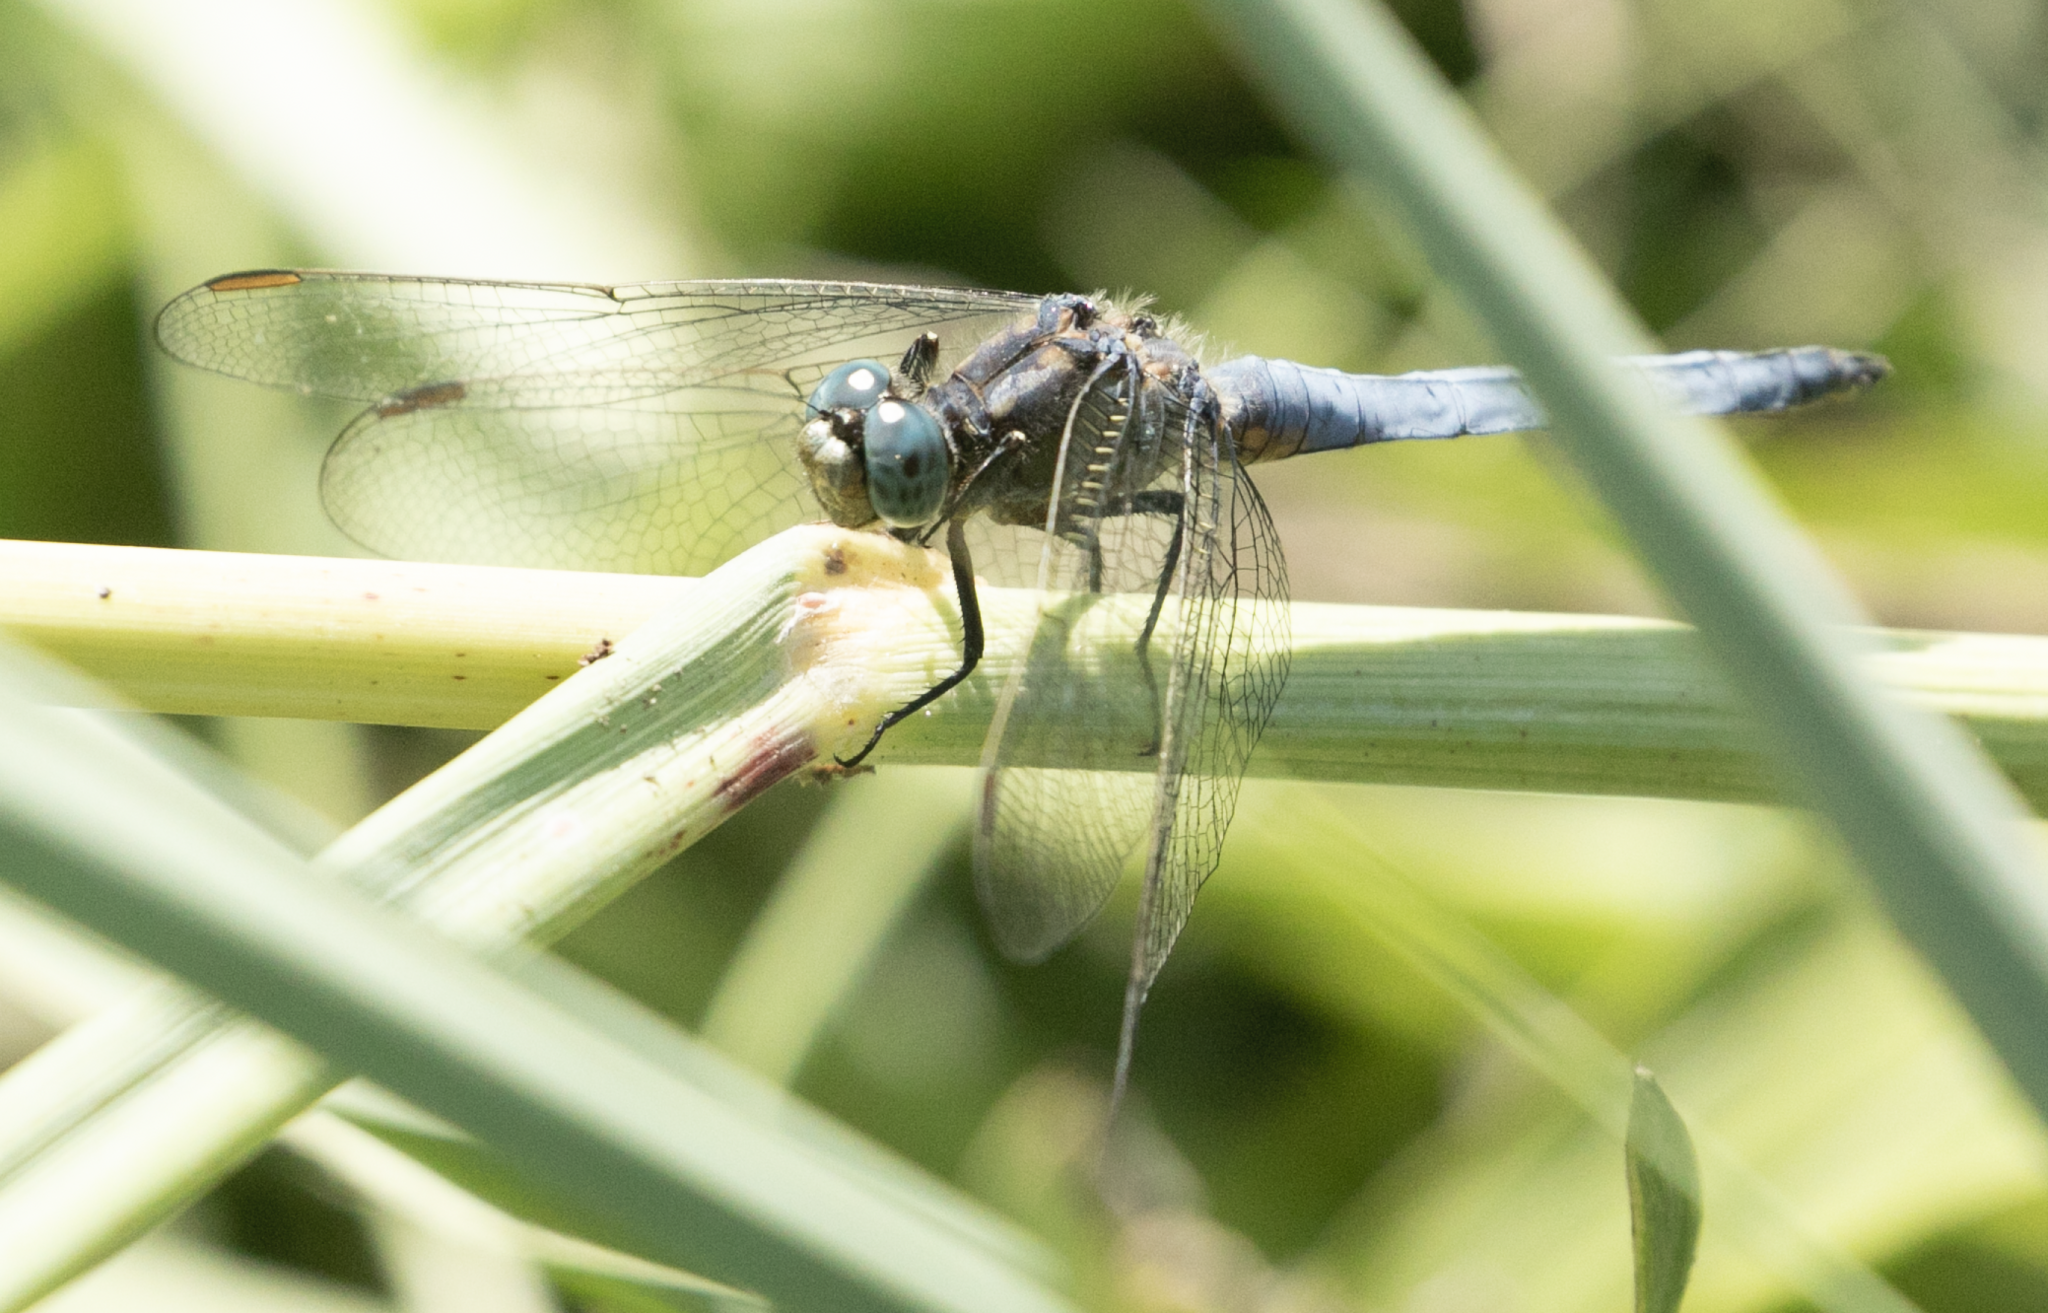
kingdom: Animalia
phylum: Arthropoda
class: Insecta
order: Odonata
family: Libellulidae
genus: Orthetrum
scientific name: Orthetrum coerulescens
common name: Keeled skimmer
